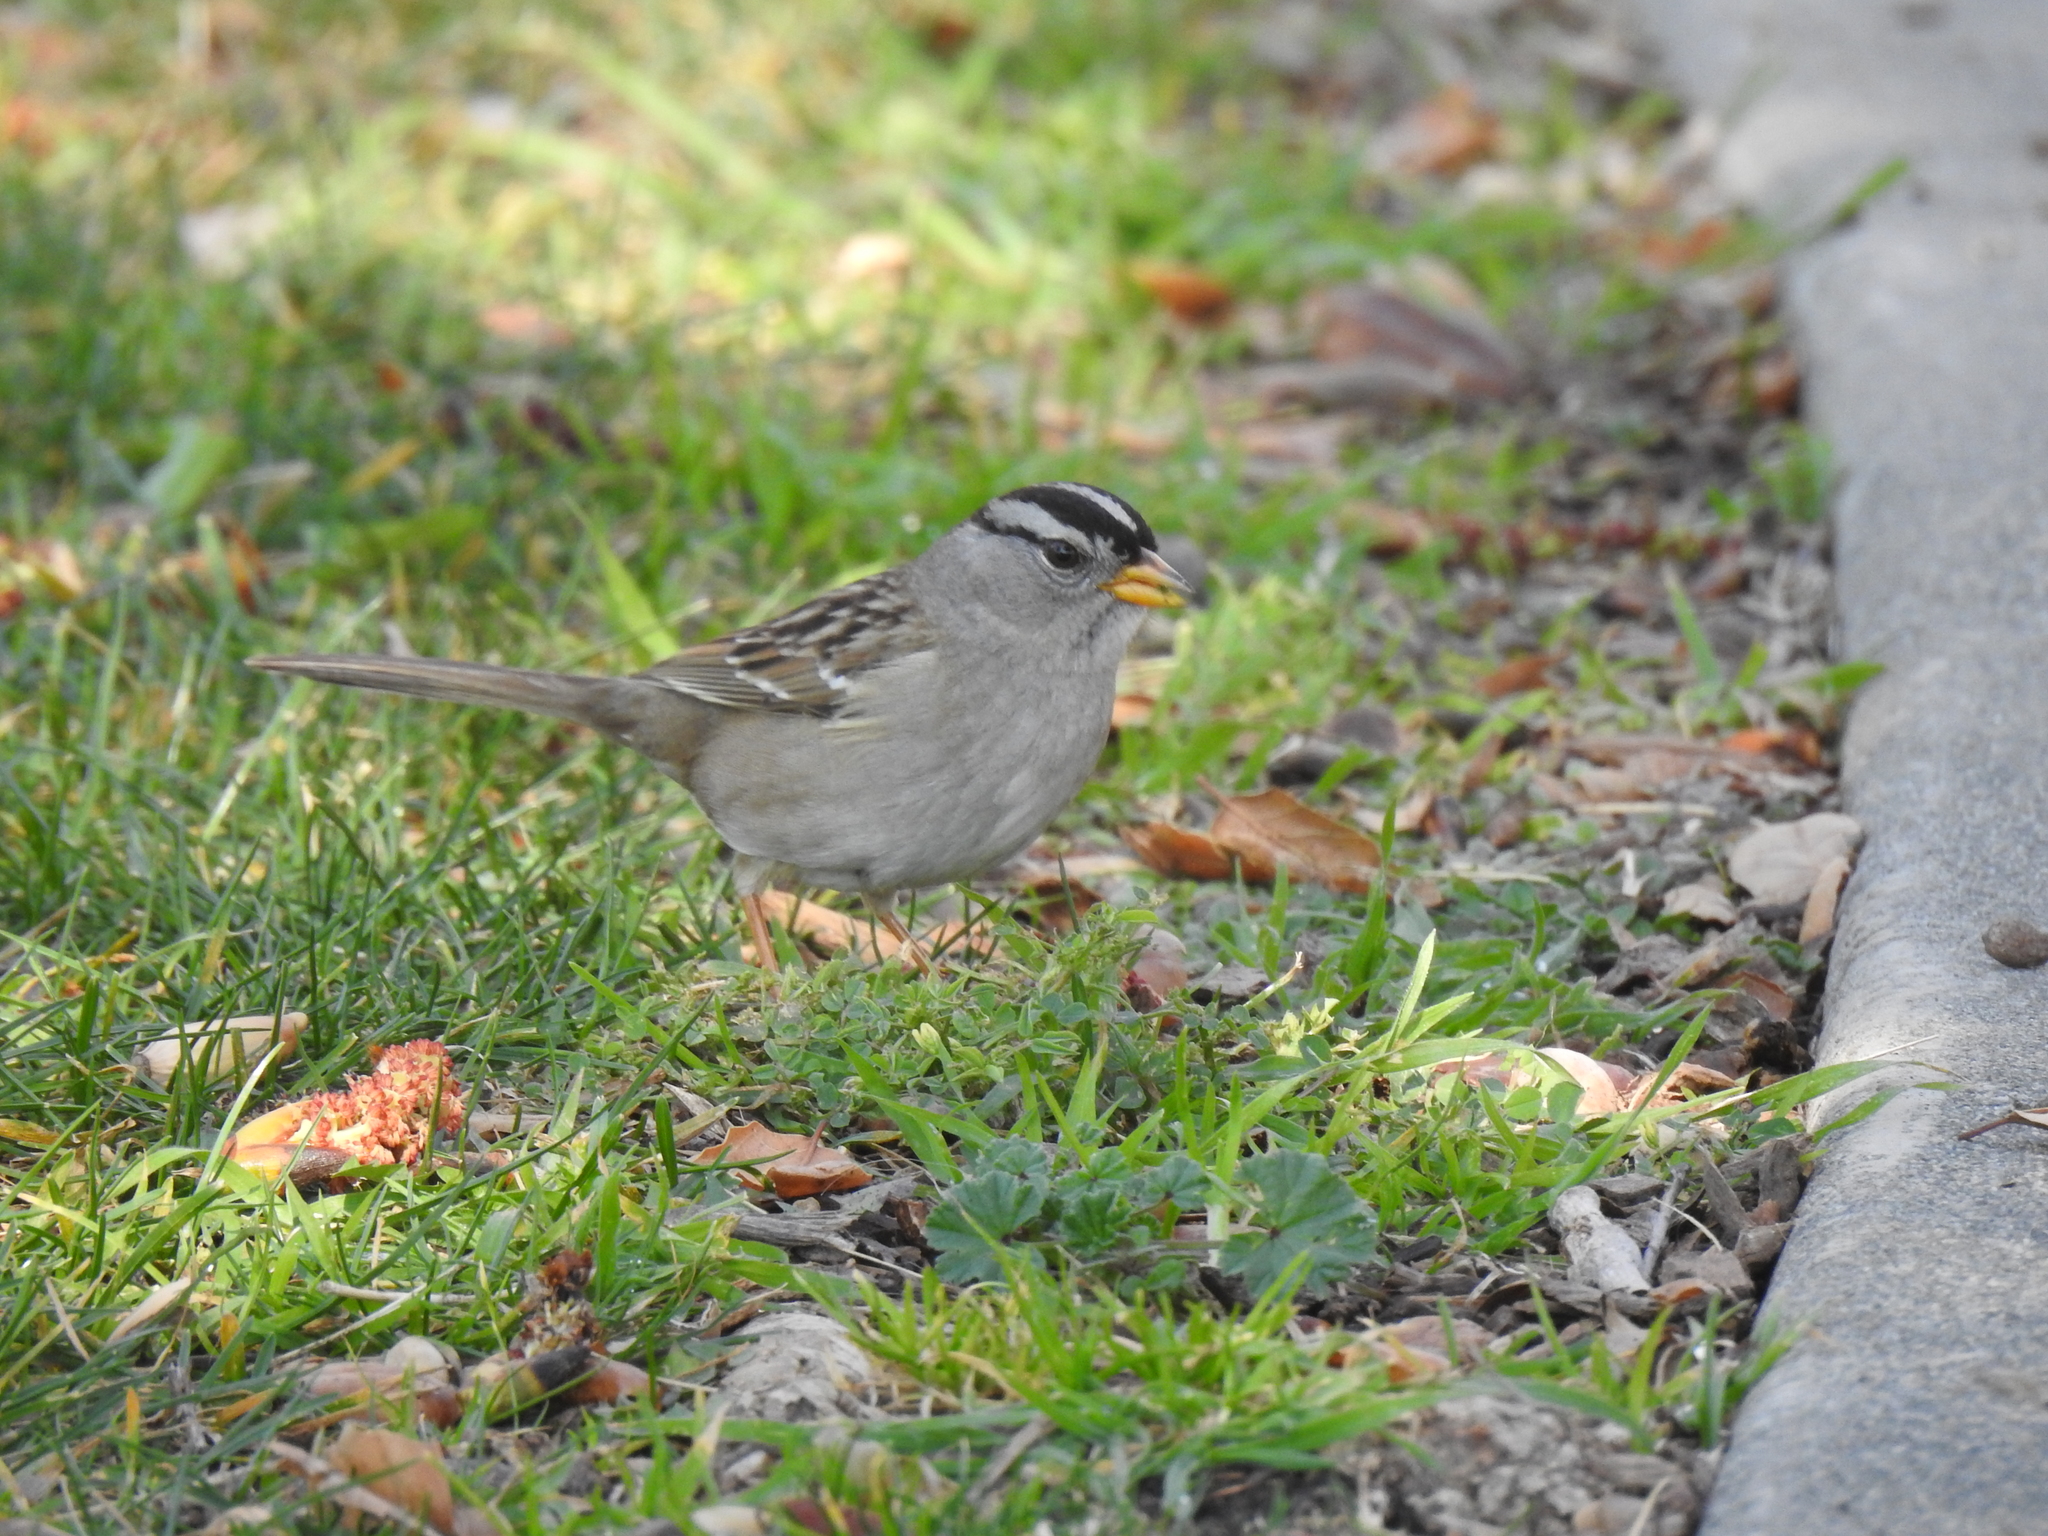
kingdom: Animalia
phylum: Chordata
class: Aves
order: Passeriformes
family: Passerellidae
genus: Zonotrichia
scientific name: Zonotrichia leucophrys
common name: White-crowned sparrow
